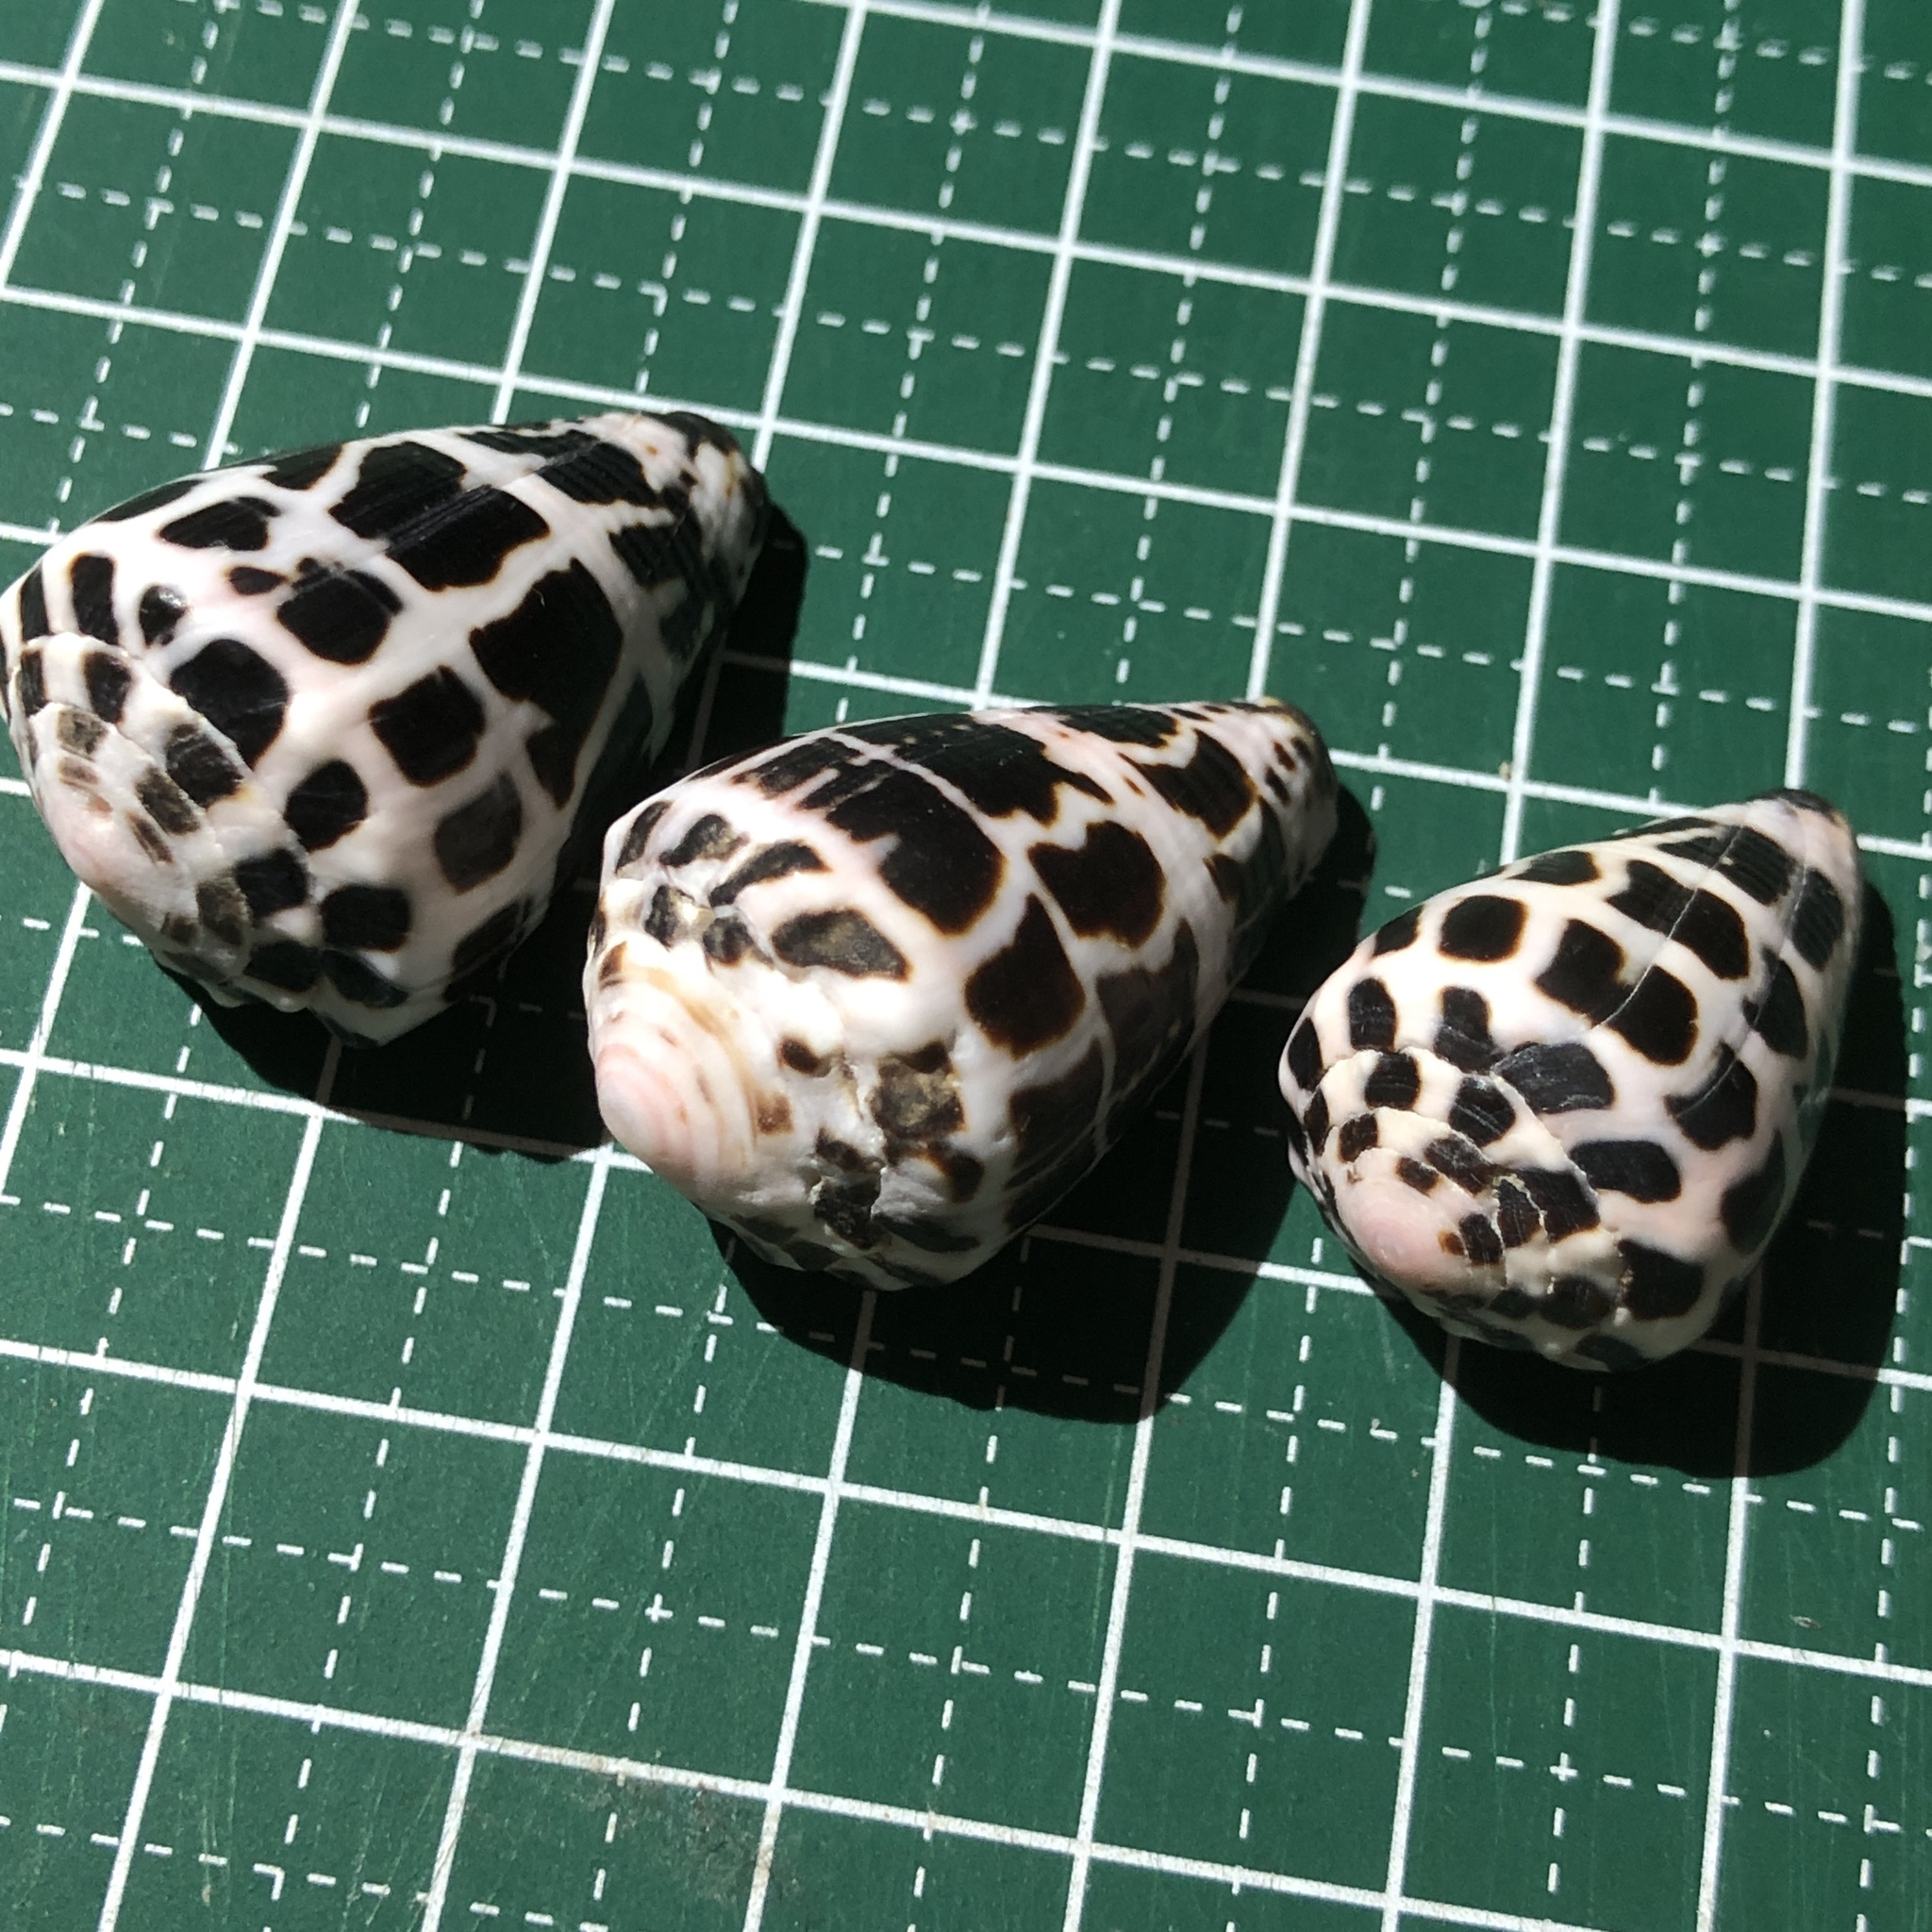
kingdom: Animalia
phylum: Mollusca
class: Gastropoda
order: Neogastropoda
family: Conidae
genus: Conus
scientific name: Conus ebraeus
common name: Hebrew cone
